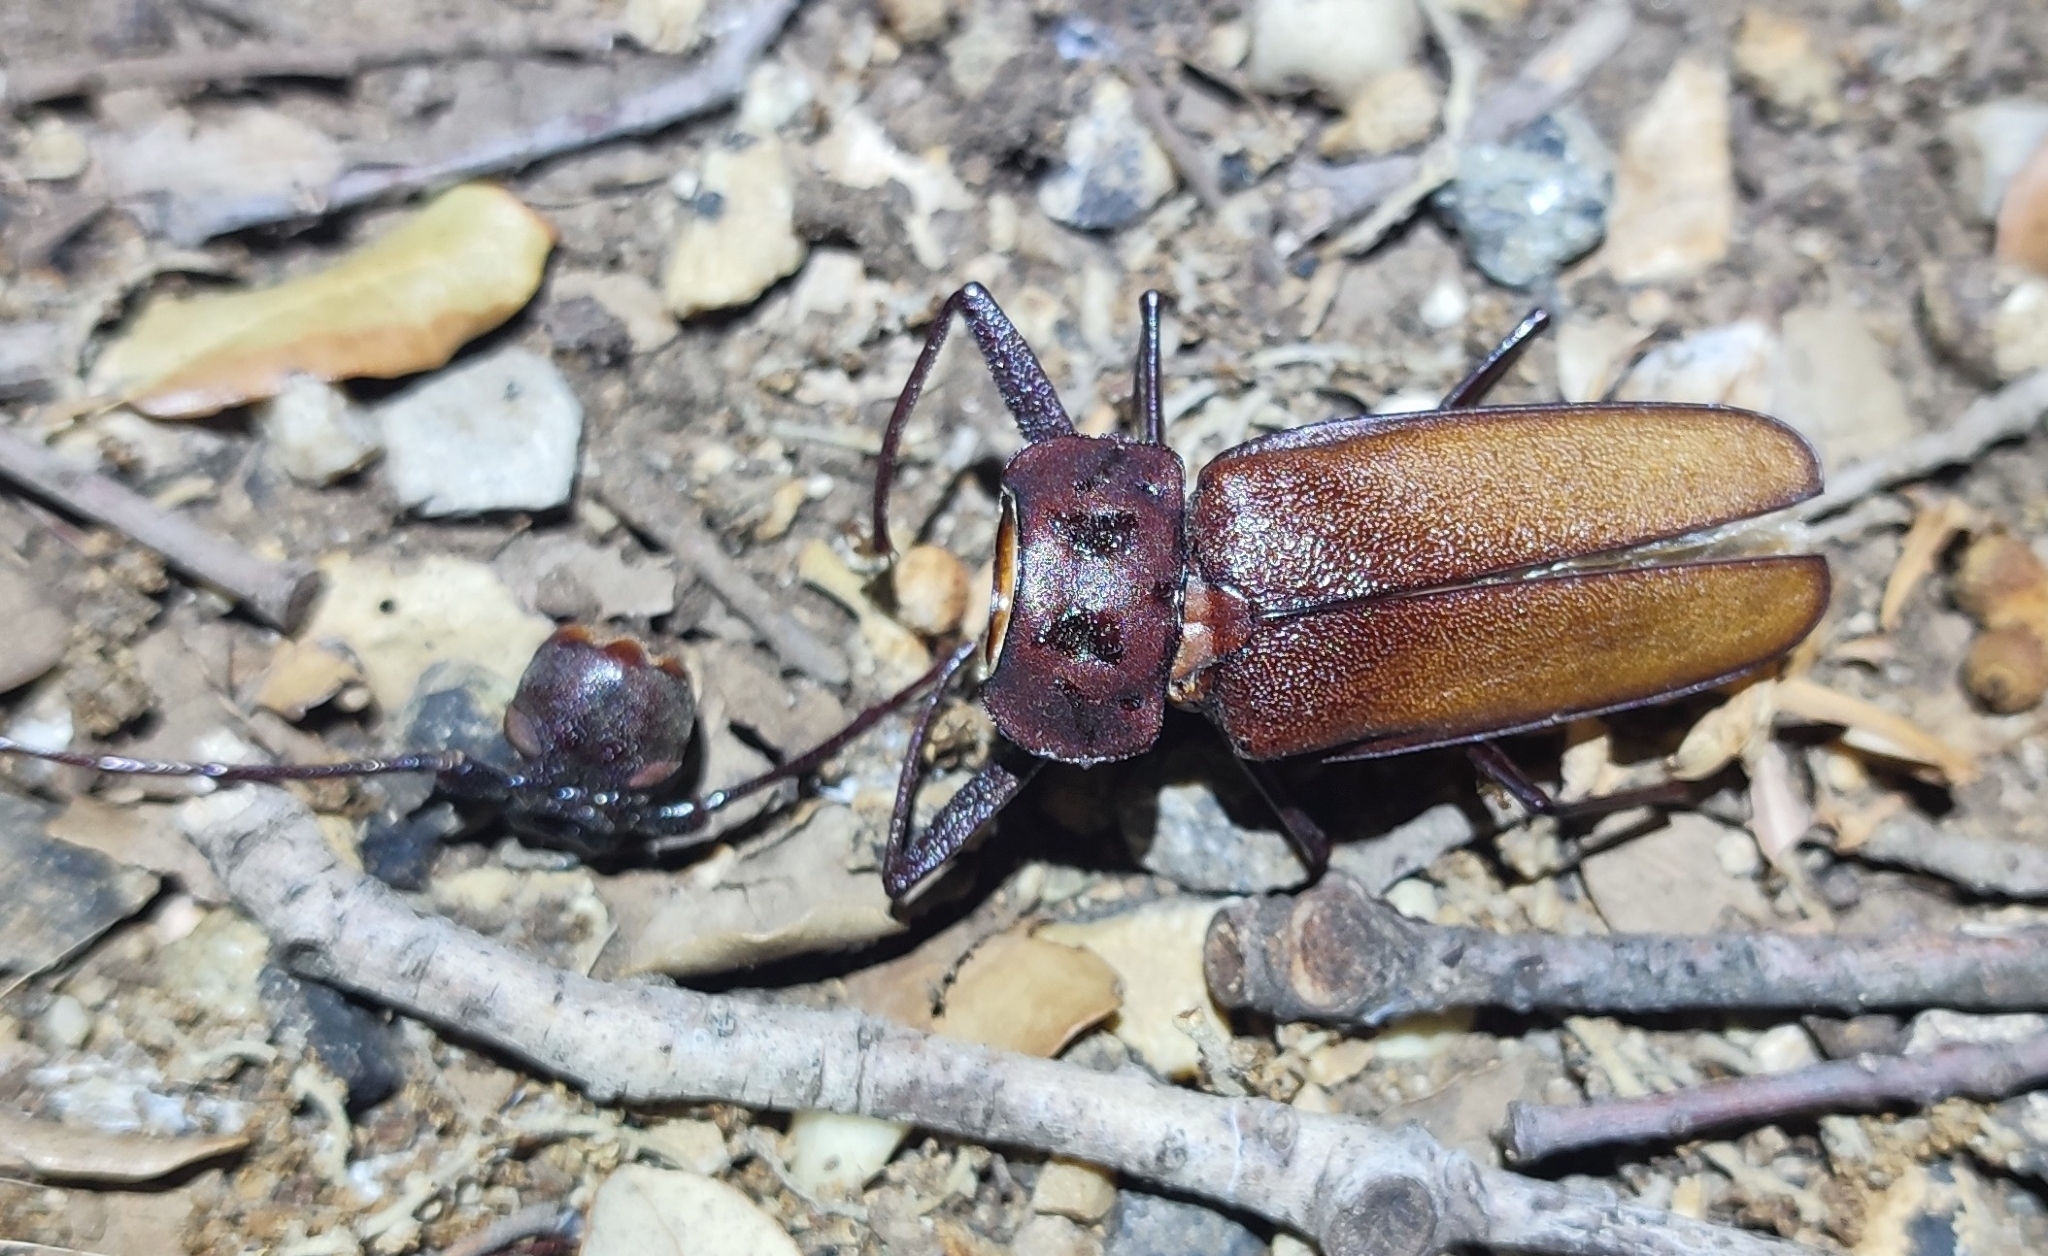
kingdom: Animalia
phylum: Arthropoda
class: Insecta
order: Coleoptera
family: Cerambycidae
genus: Ergates
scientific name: Ergates faber
